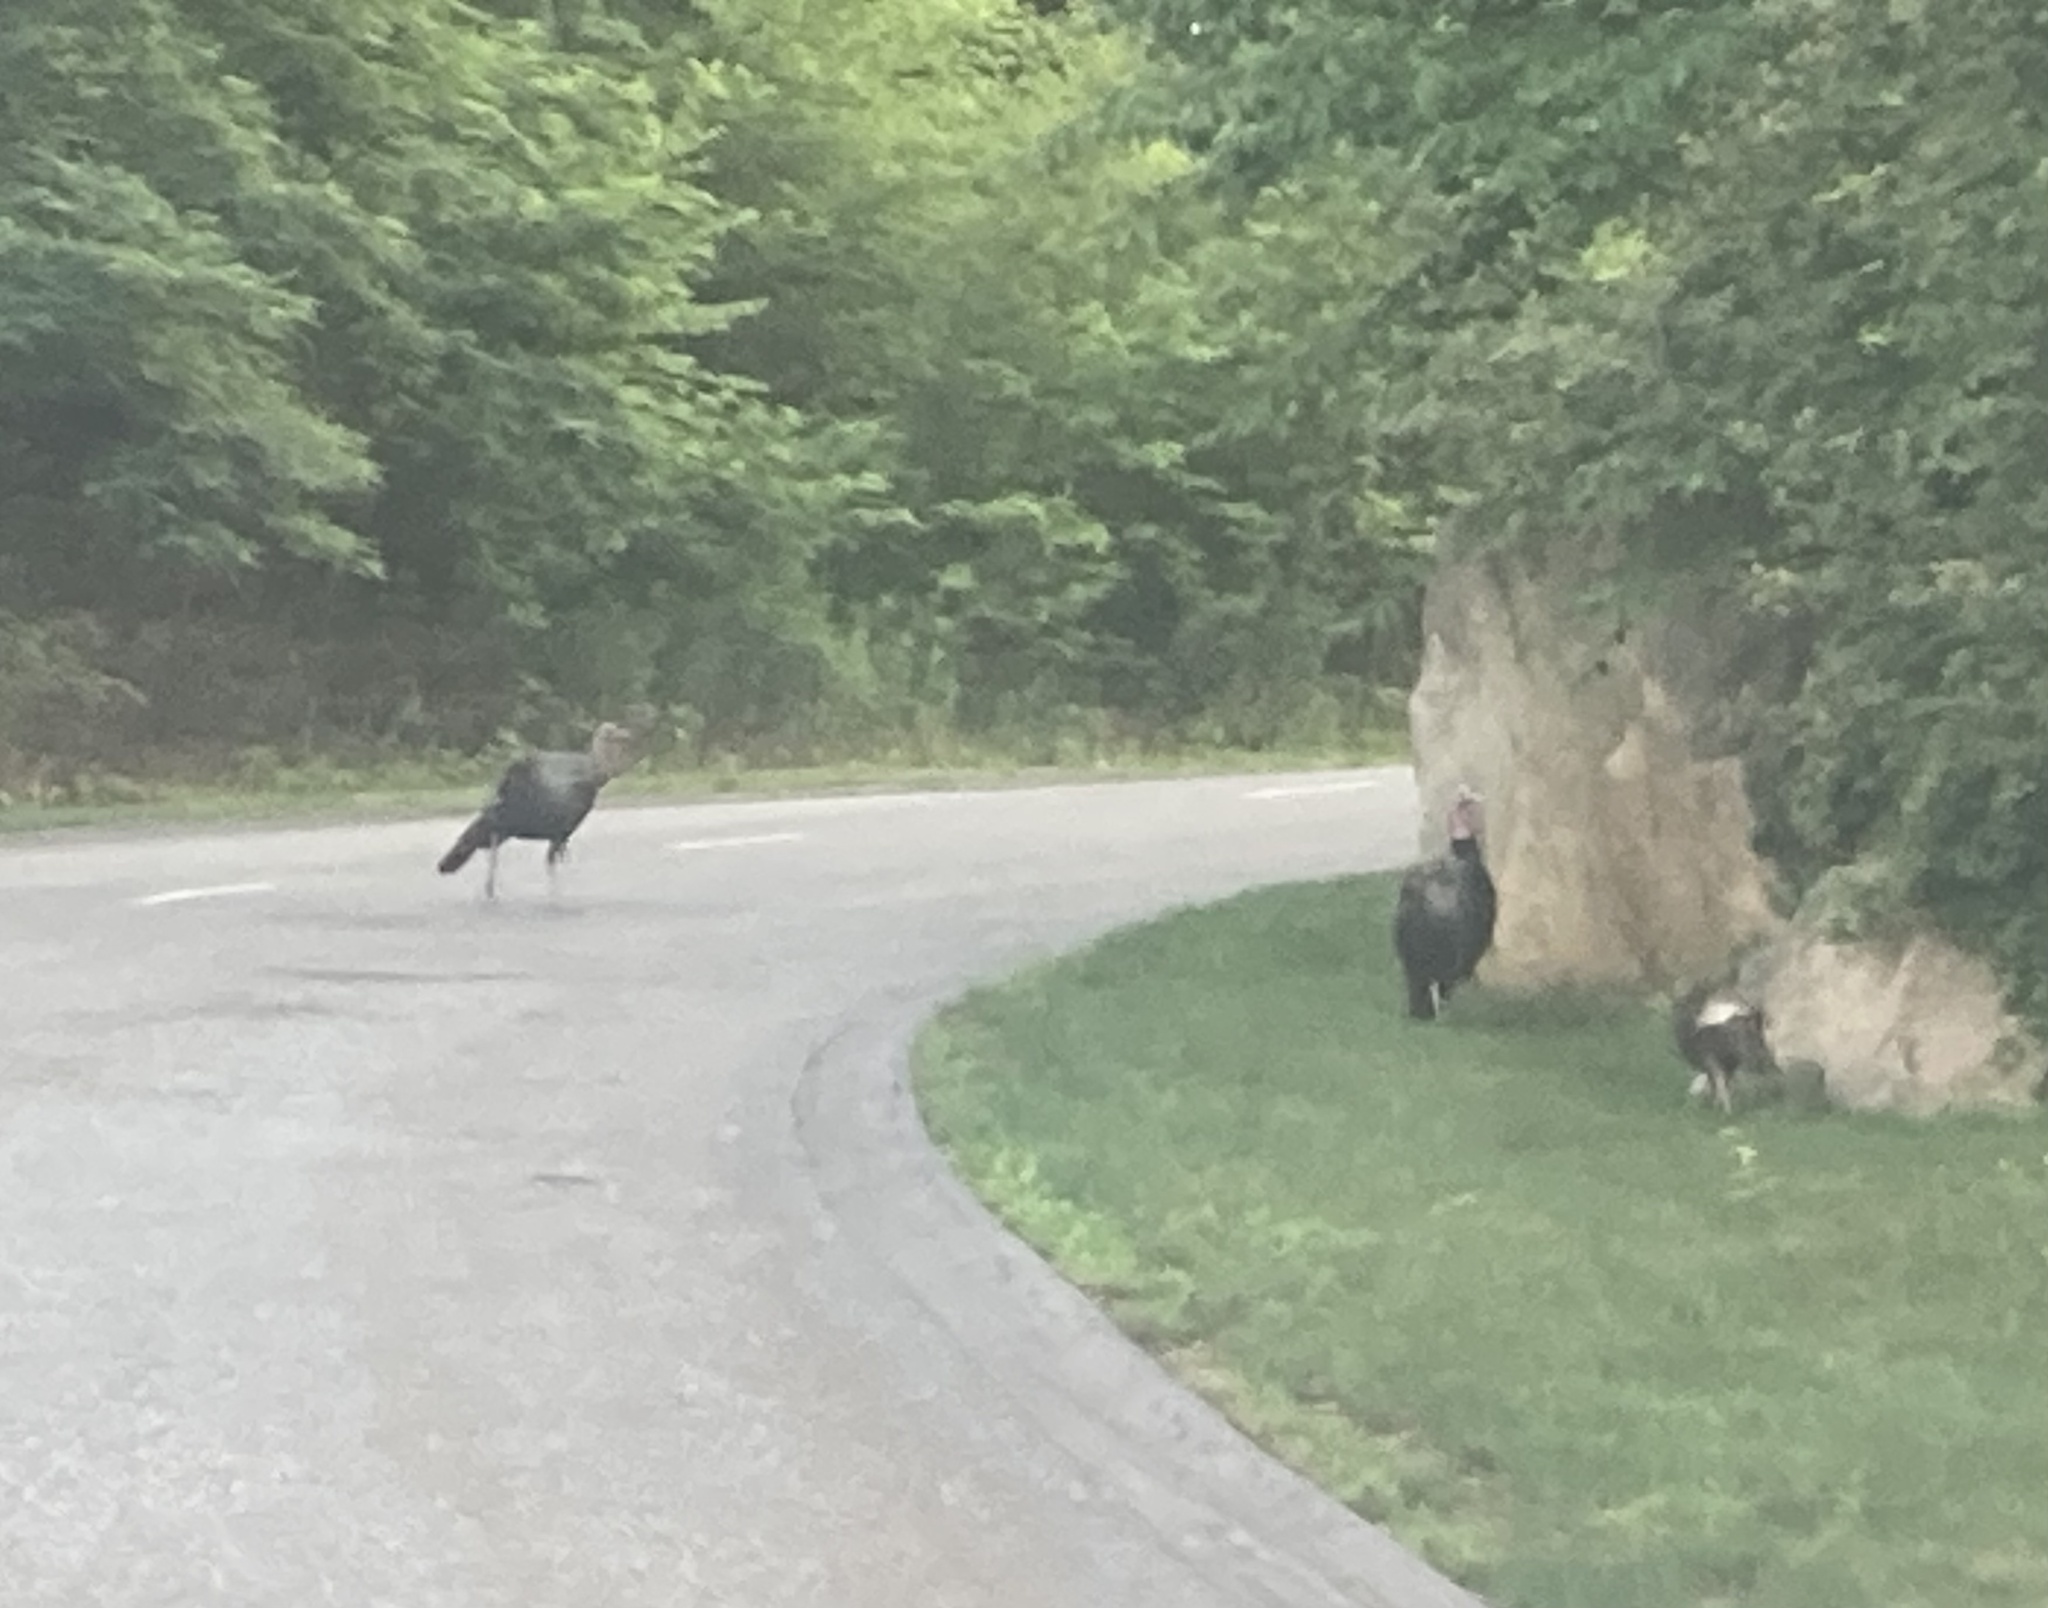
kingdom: Animalia
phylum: Chordata
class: Aves
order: Galliformes
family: Phasianidae
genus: Meleagris
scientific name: Meleagris gallopavo
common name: Wild turkey
